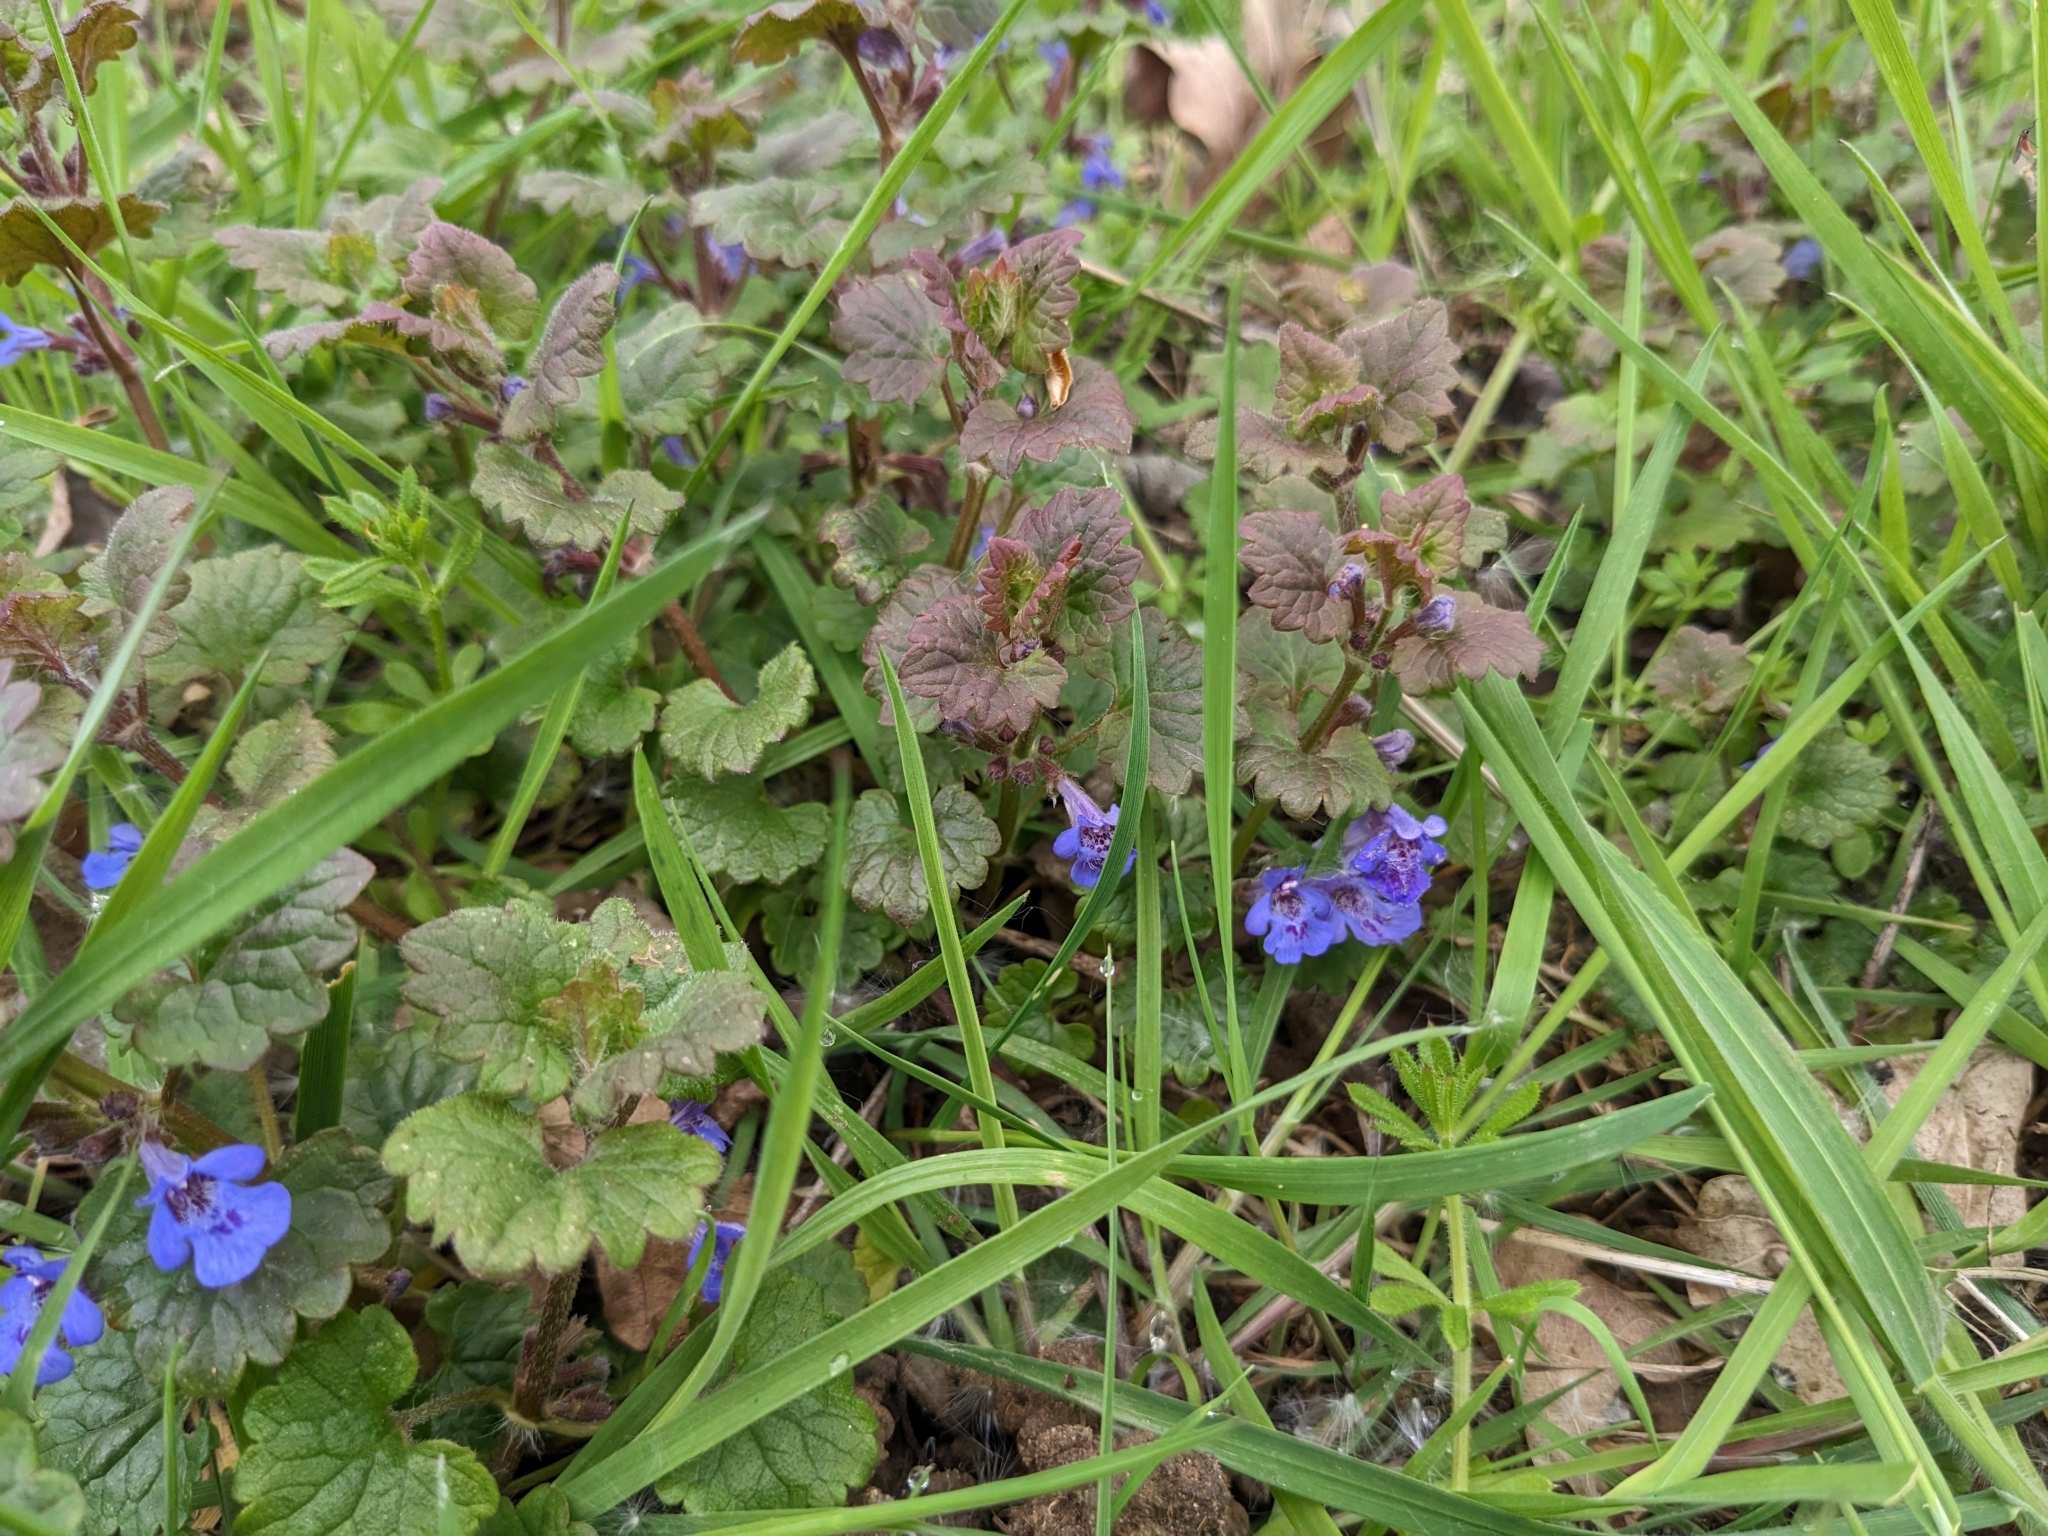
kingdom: Plantae
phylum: Tracheophyta
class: Magnoliopsida
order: Lamiales
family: Lamiaceae
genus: Glechoma
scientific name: Glechoma hederacea
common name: Ground ivy
